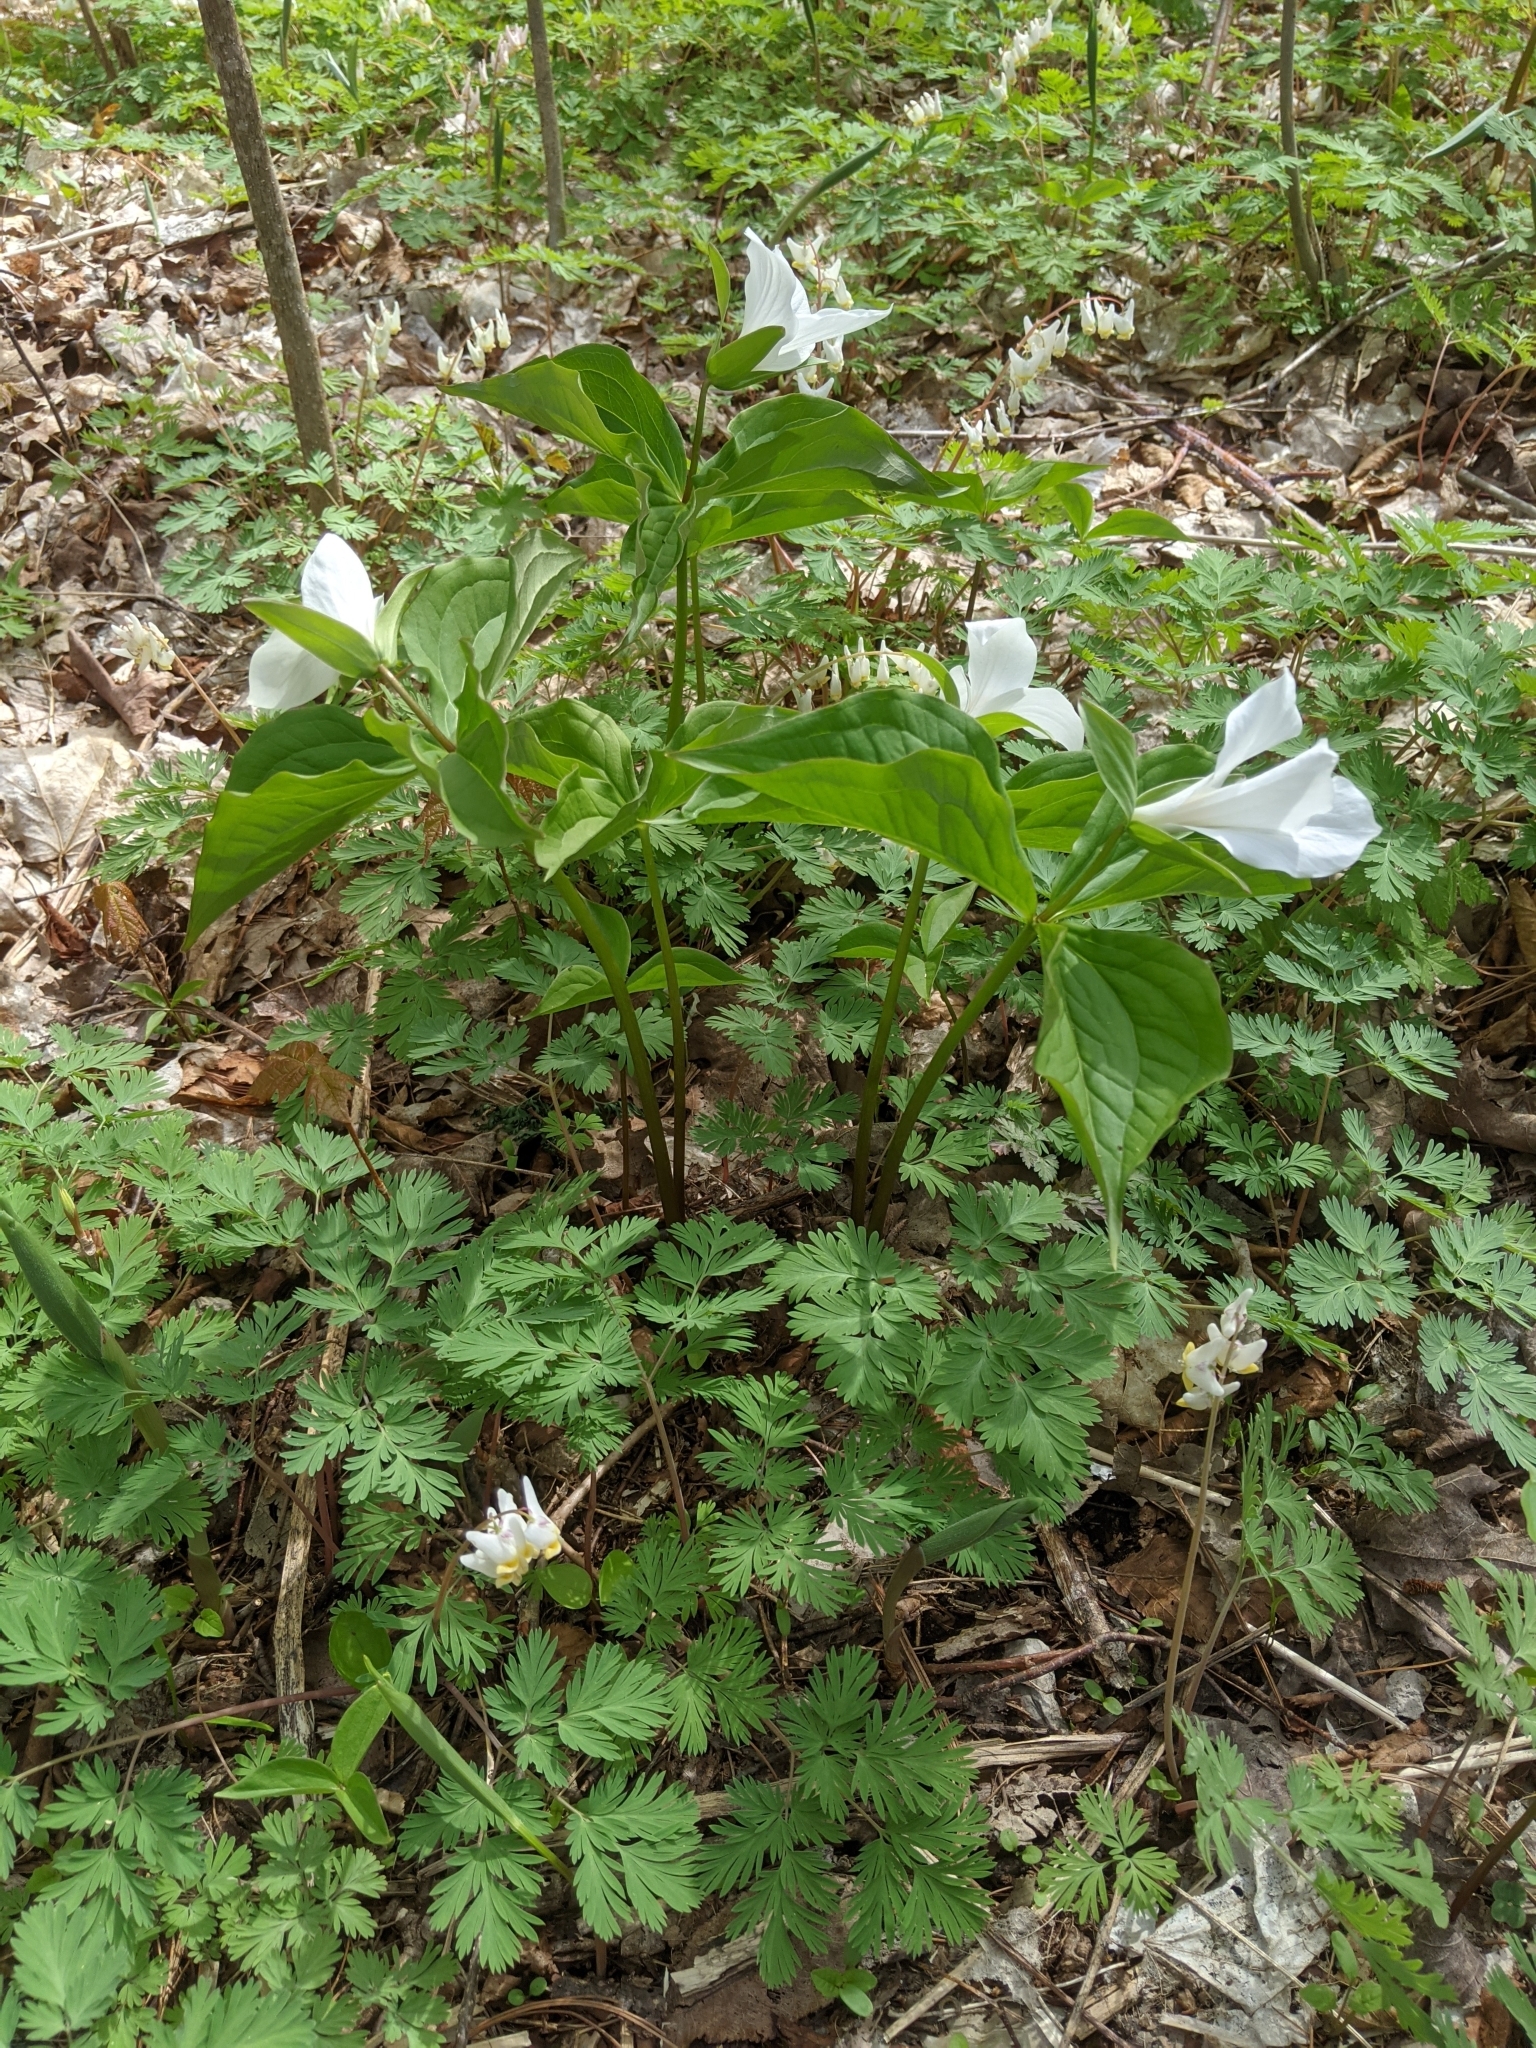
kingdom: Plantae
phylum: Tracheophyta
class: Liliopsida
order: Liliales
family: Melanthiaceae
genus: Trillium
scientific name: Trillium grandiflorum
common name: Great white trillium
